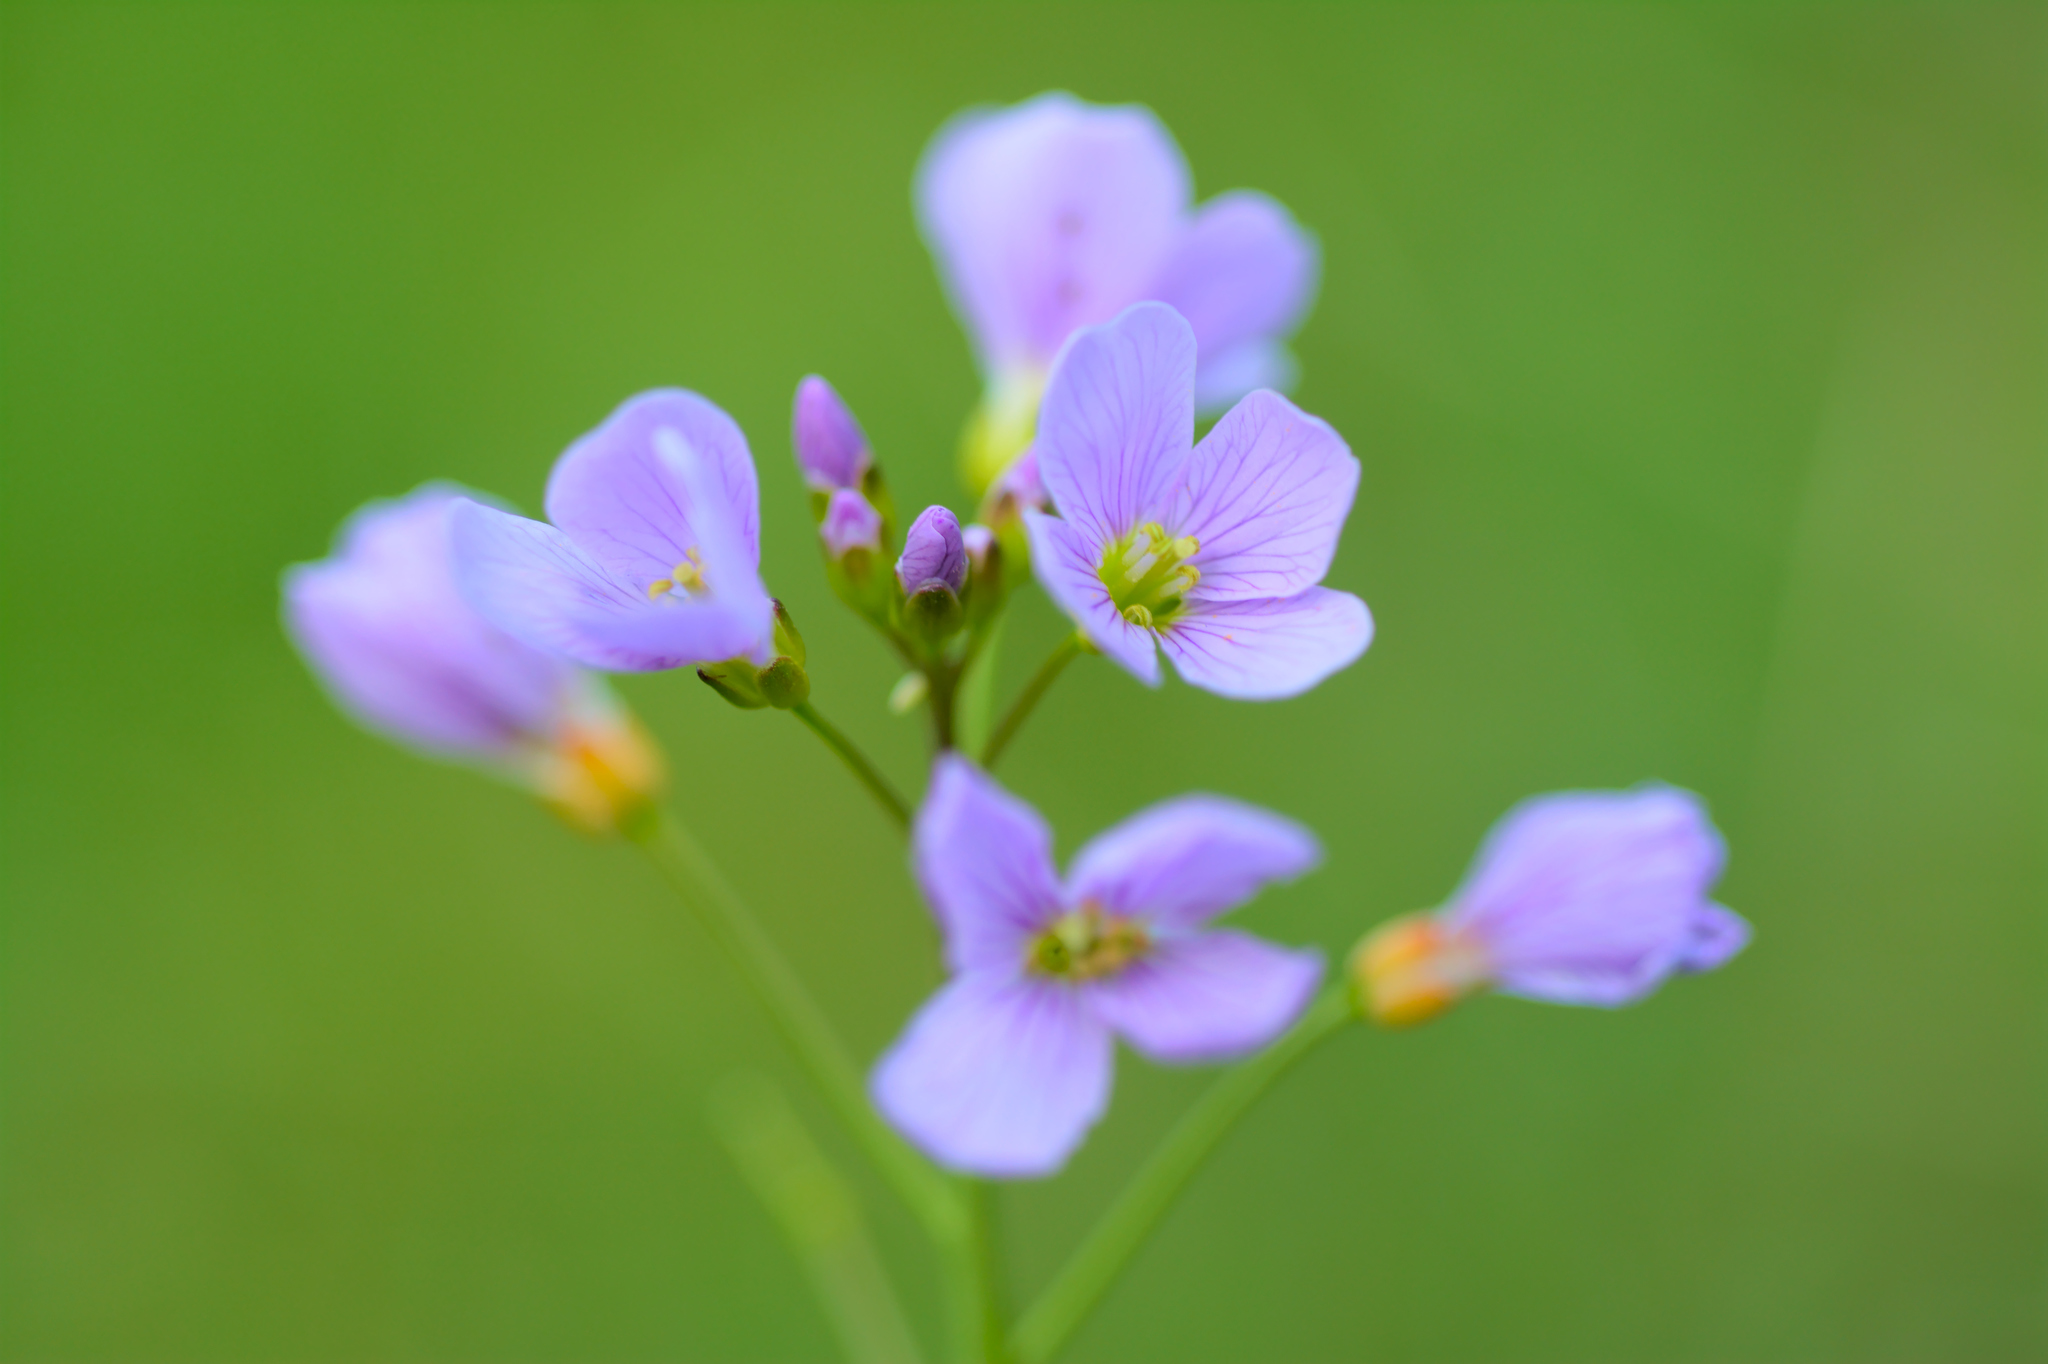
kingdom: Plantae
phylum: Tracheophyta
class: Magnoliopsida
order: Brassicales
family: Brassicaceae
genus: Cardamine
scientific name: Cardamine pratensis
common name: Cuckoo flower
